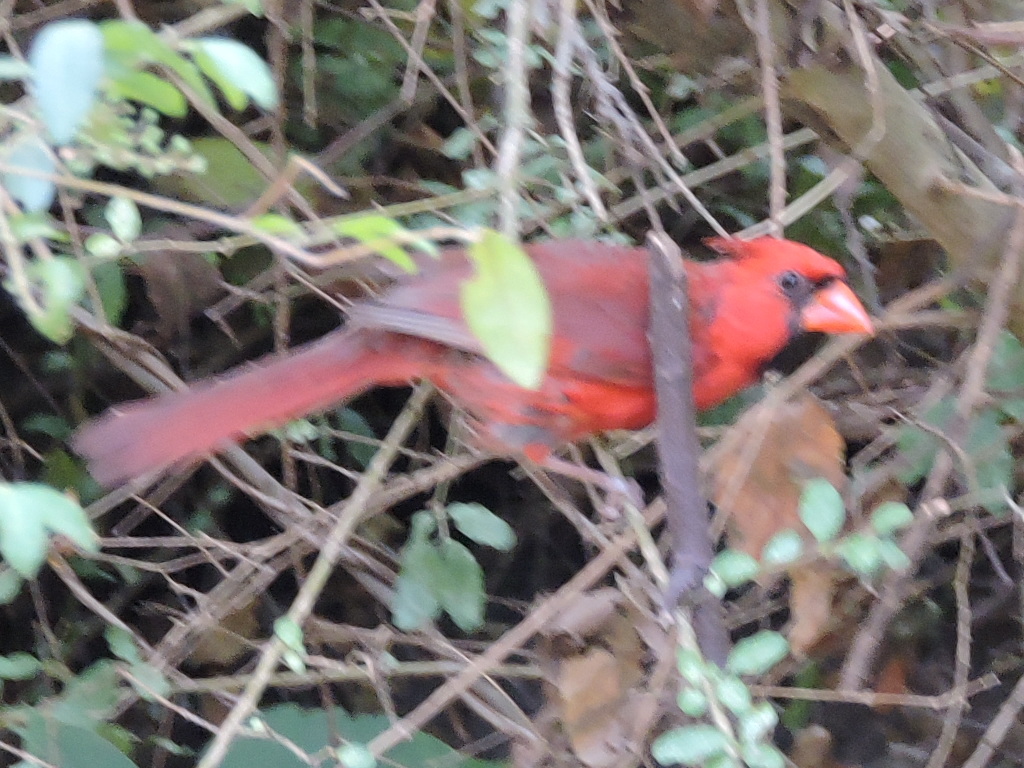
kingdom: Animalia
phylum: Chordata
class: Aves
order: Passeriformes
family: Cardinalidae
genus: Cardinalis
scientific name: Cardinalis cardinalis
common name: Northern cardinal
